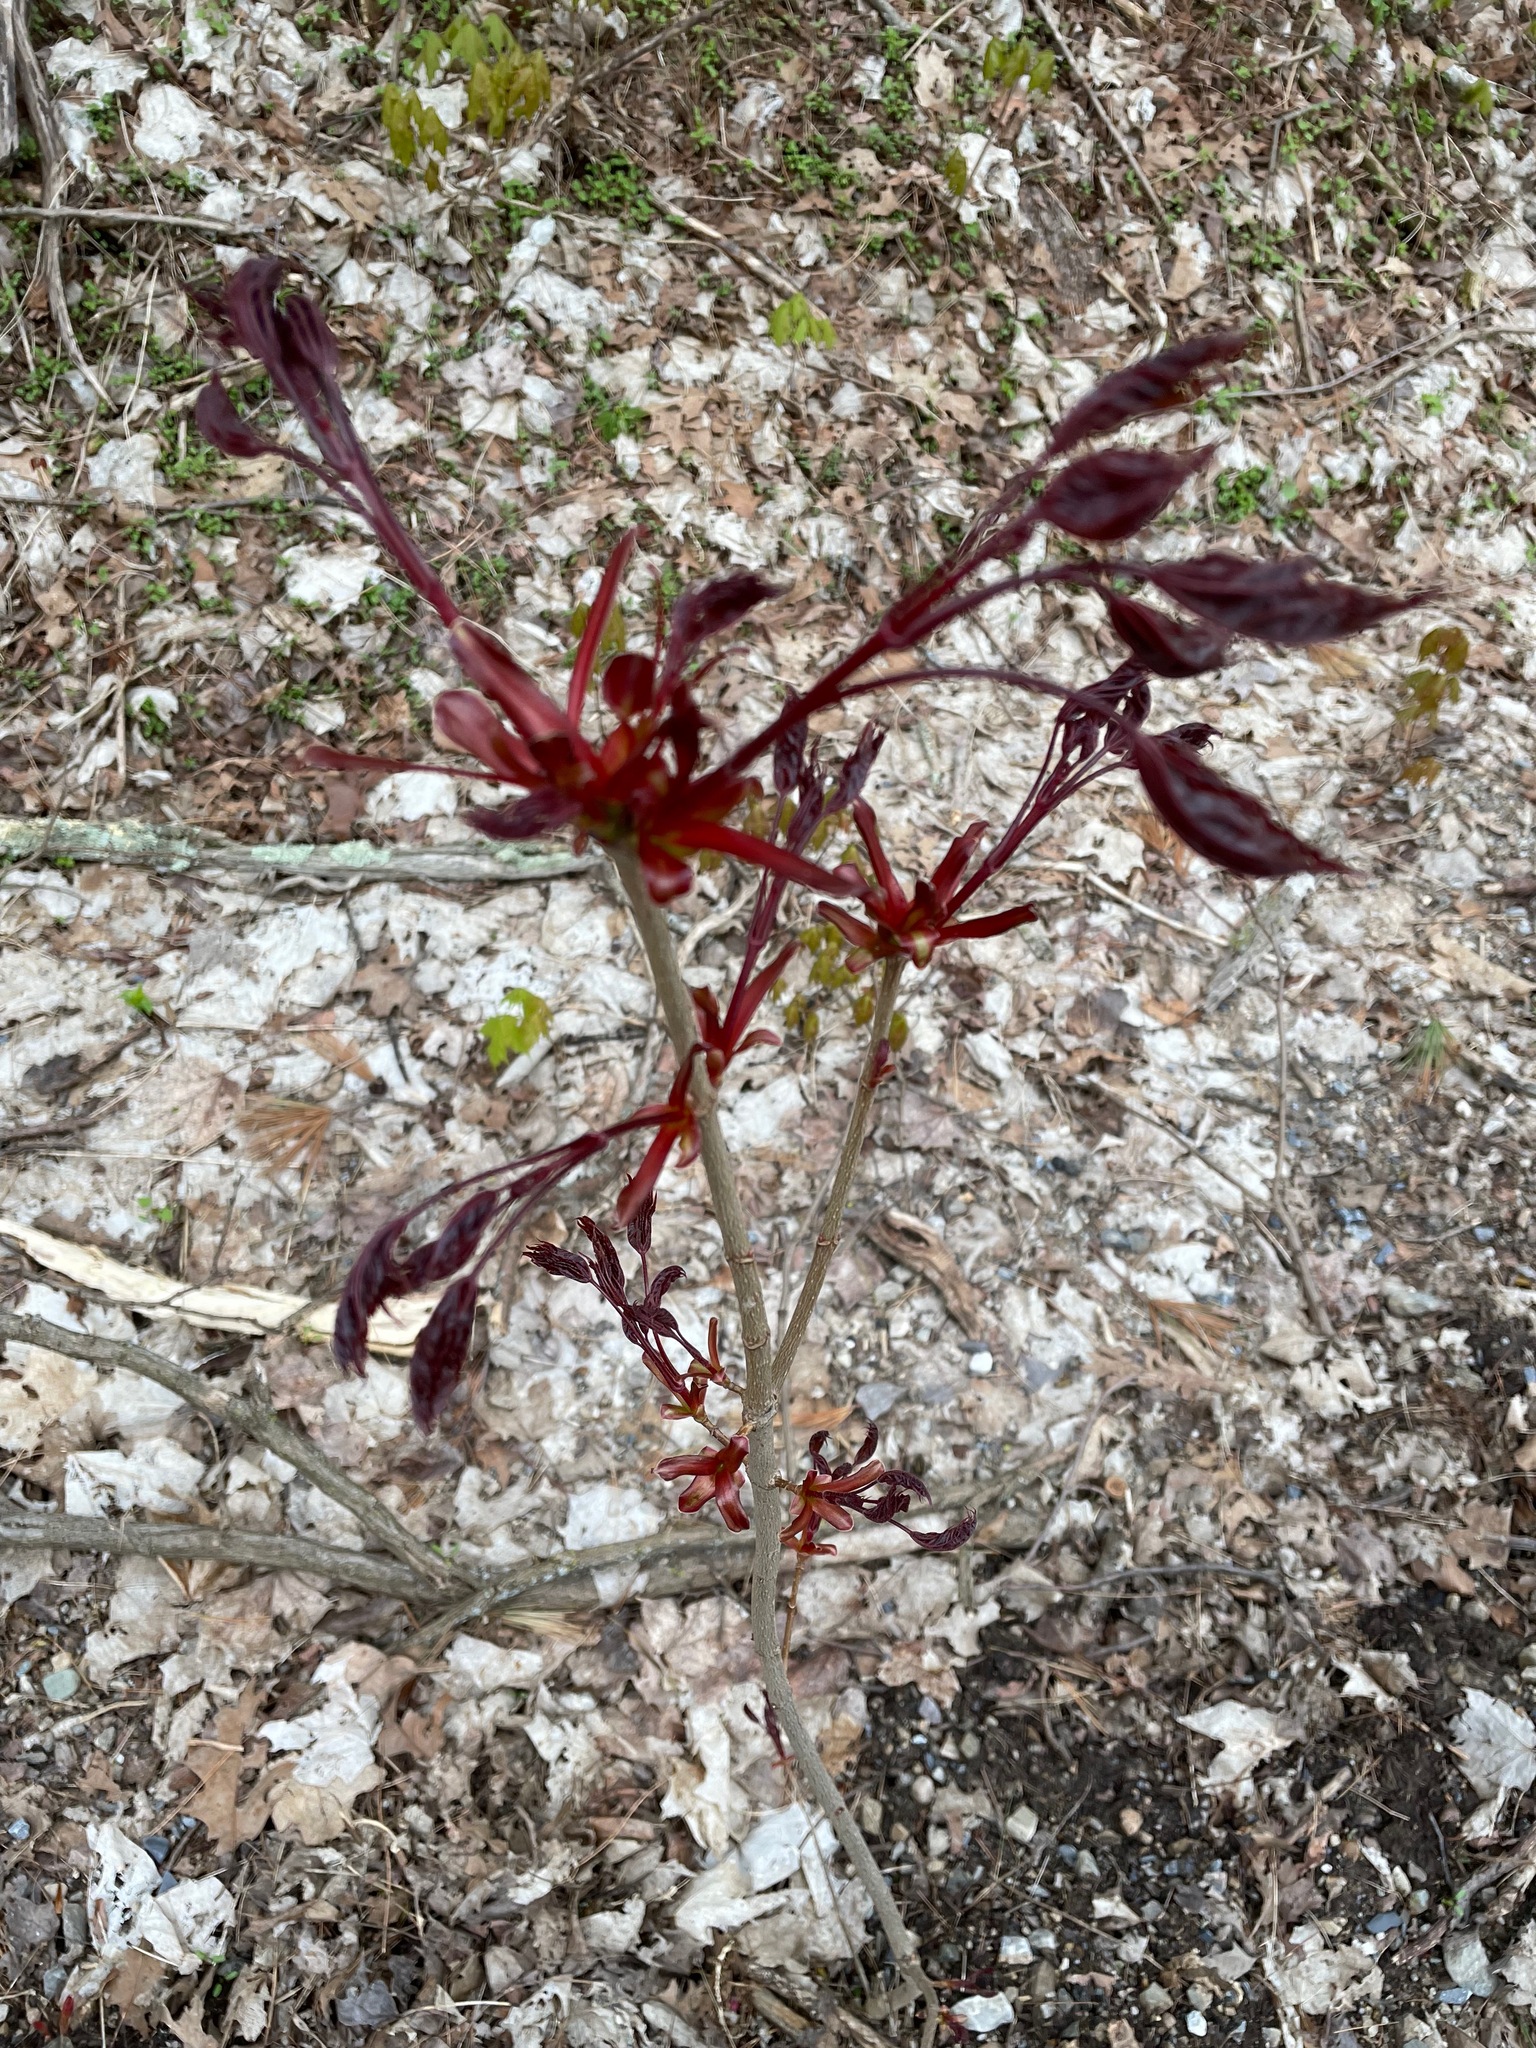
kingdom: Plantae
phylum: Tracheophyta
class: Magnoliopsida
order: Sapindales
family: Sapindaceae
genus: Acer
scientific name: Acer platanoides
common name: Norway maple
